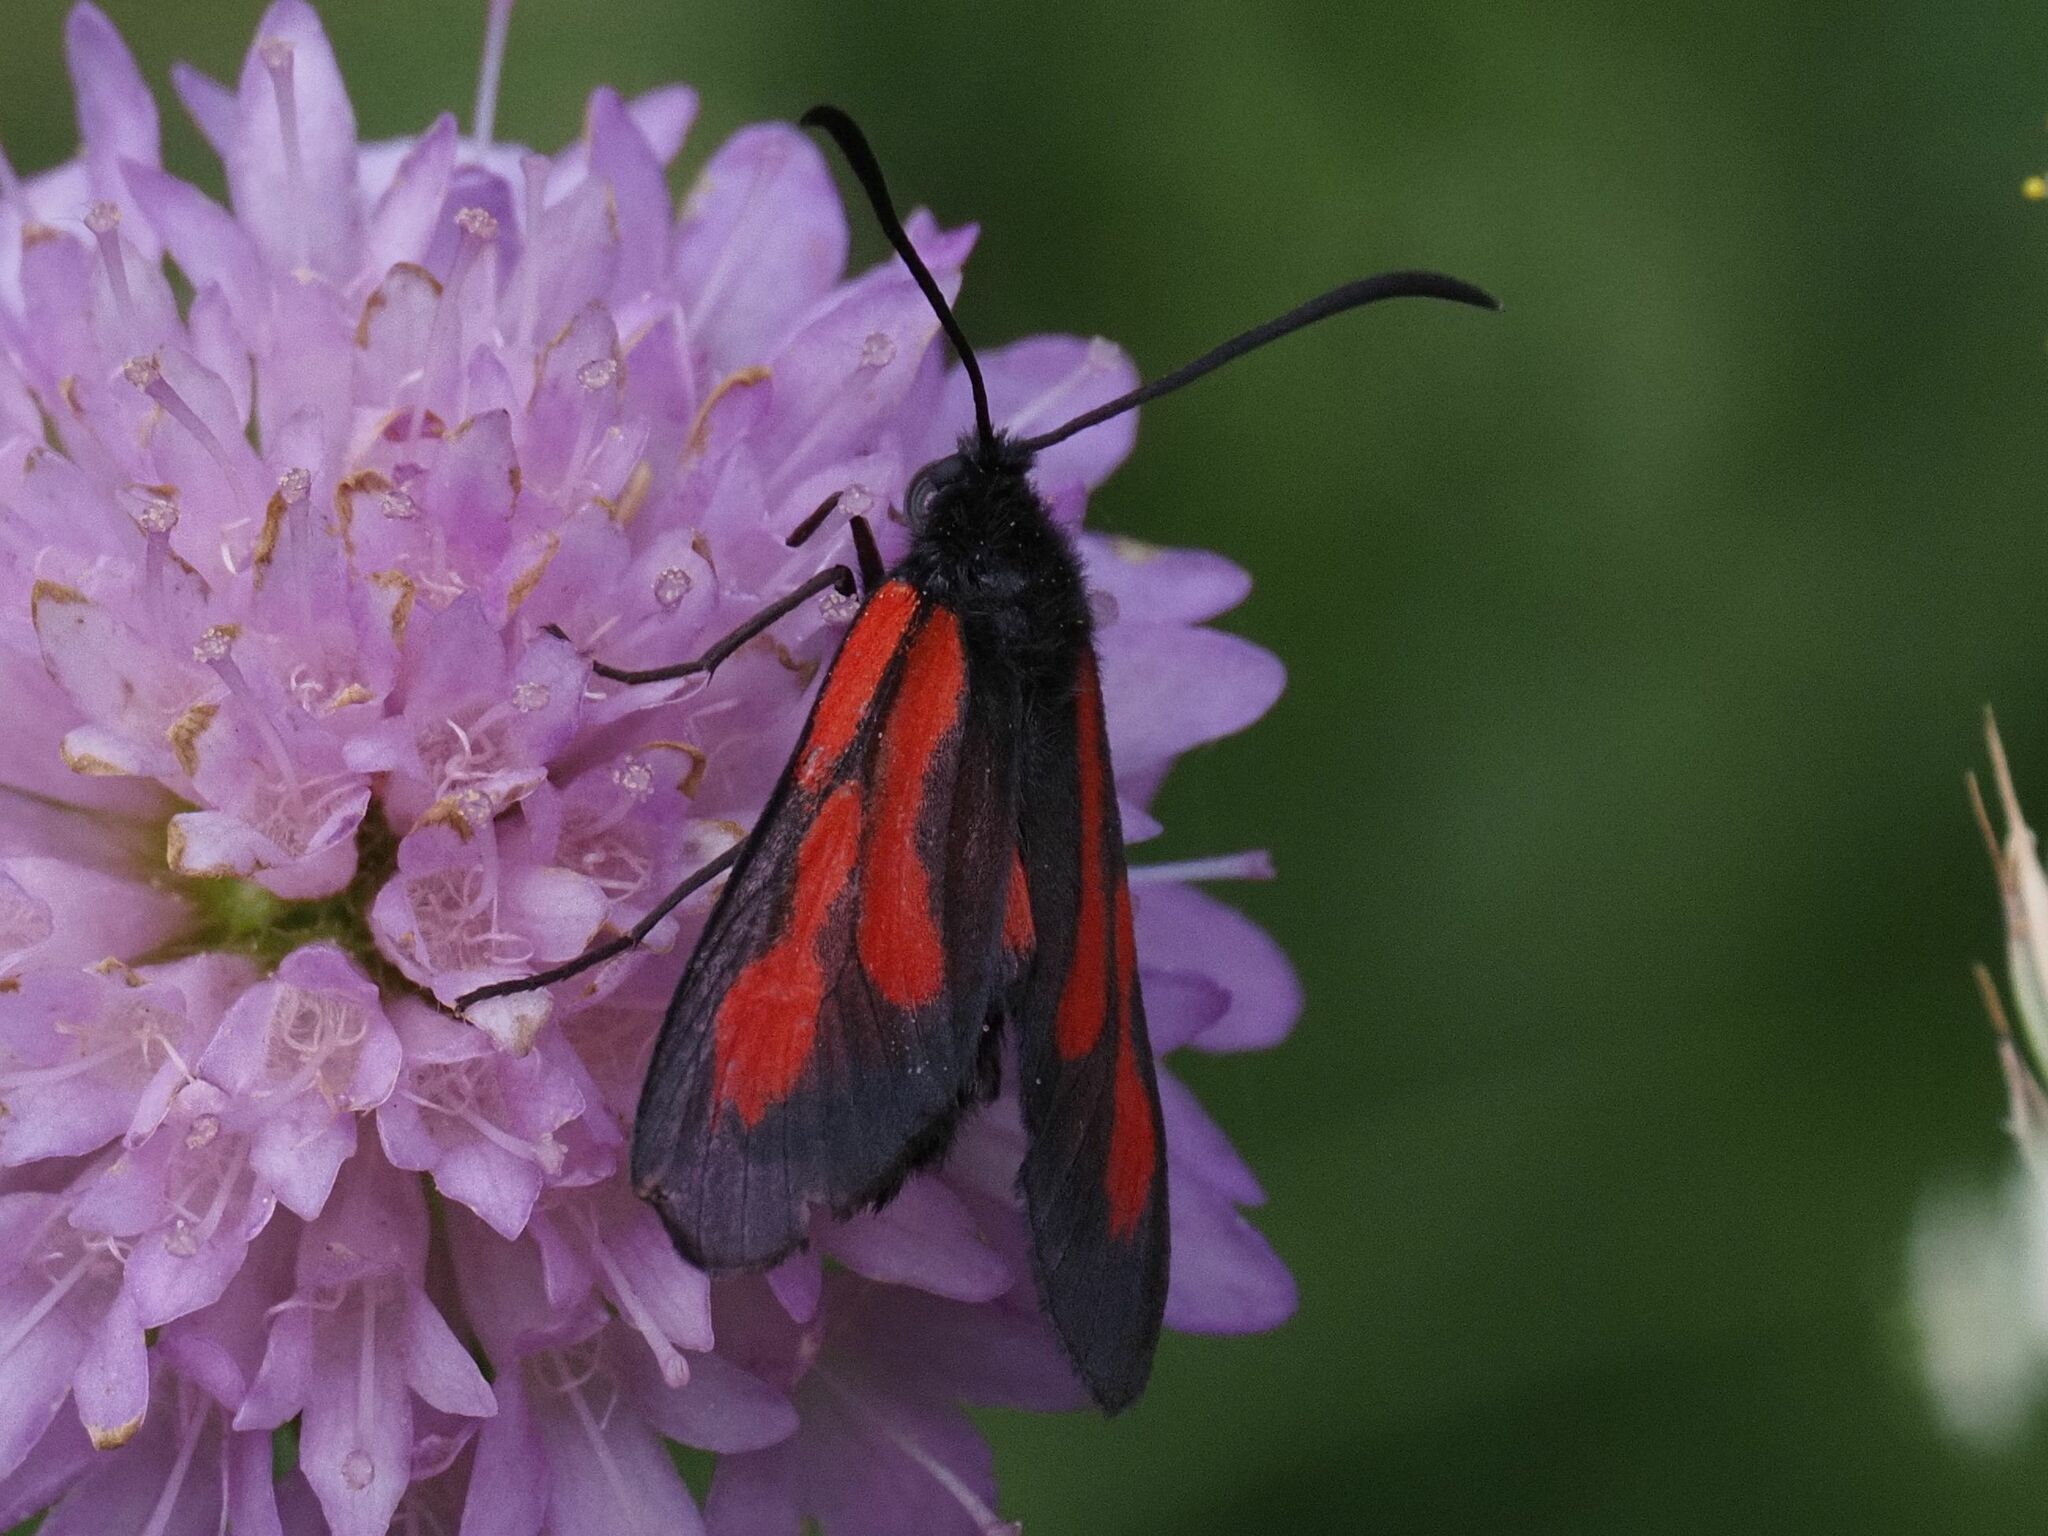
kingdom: Animalia
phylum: Arthropoda
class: Insecta
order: Lepidoptera
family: Zygaenidae
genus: Zygaena
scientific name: Zygaena osterodensis
